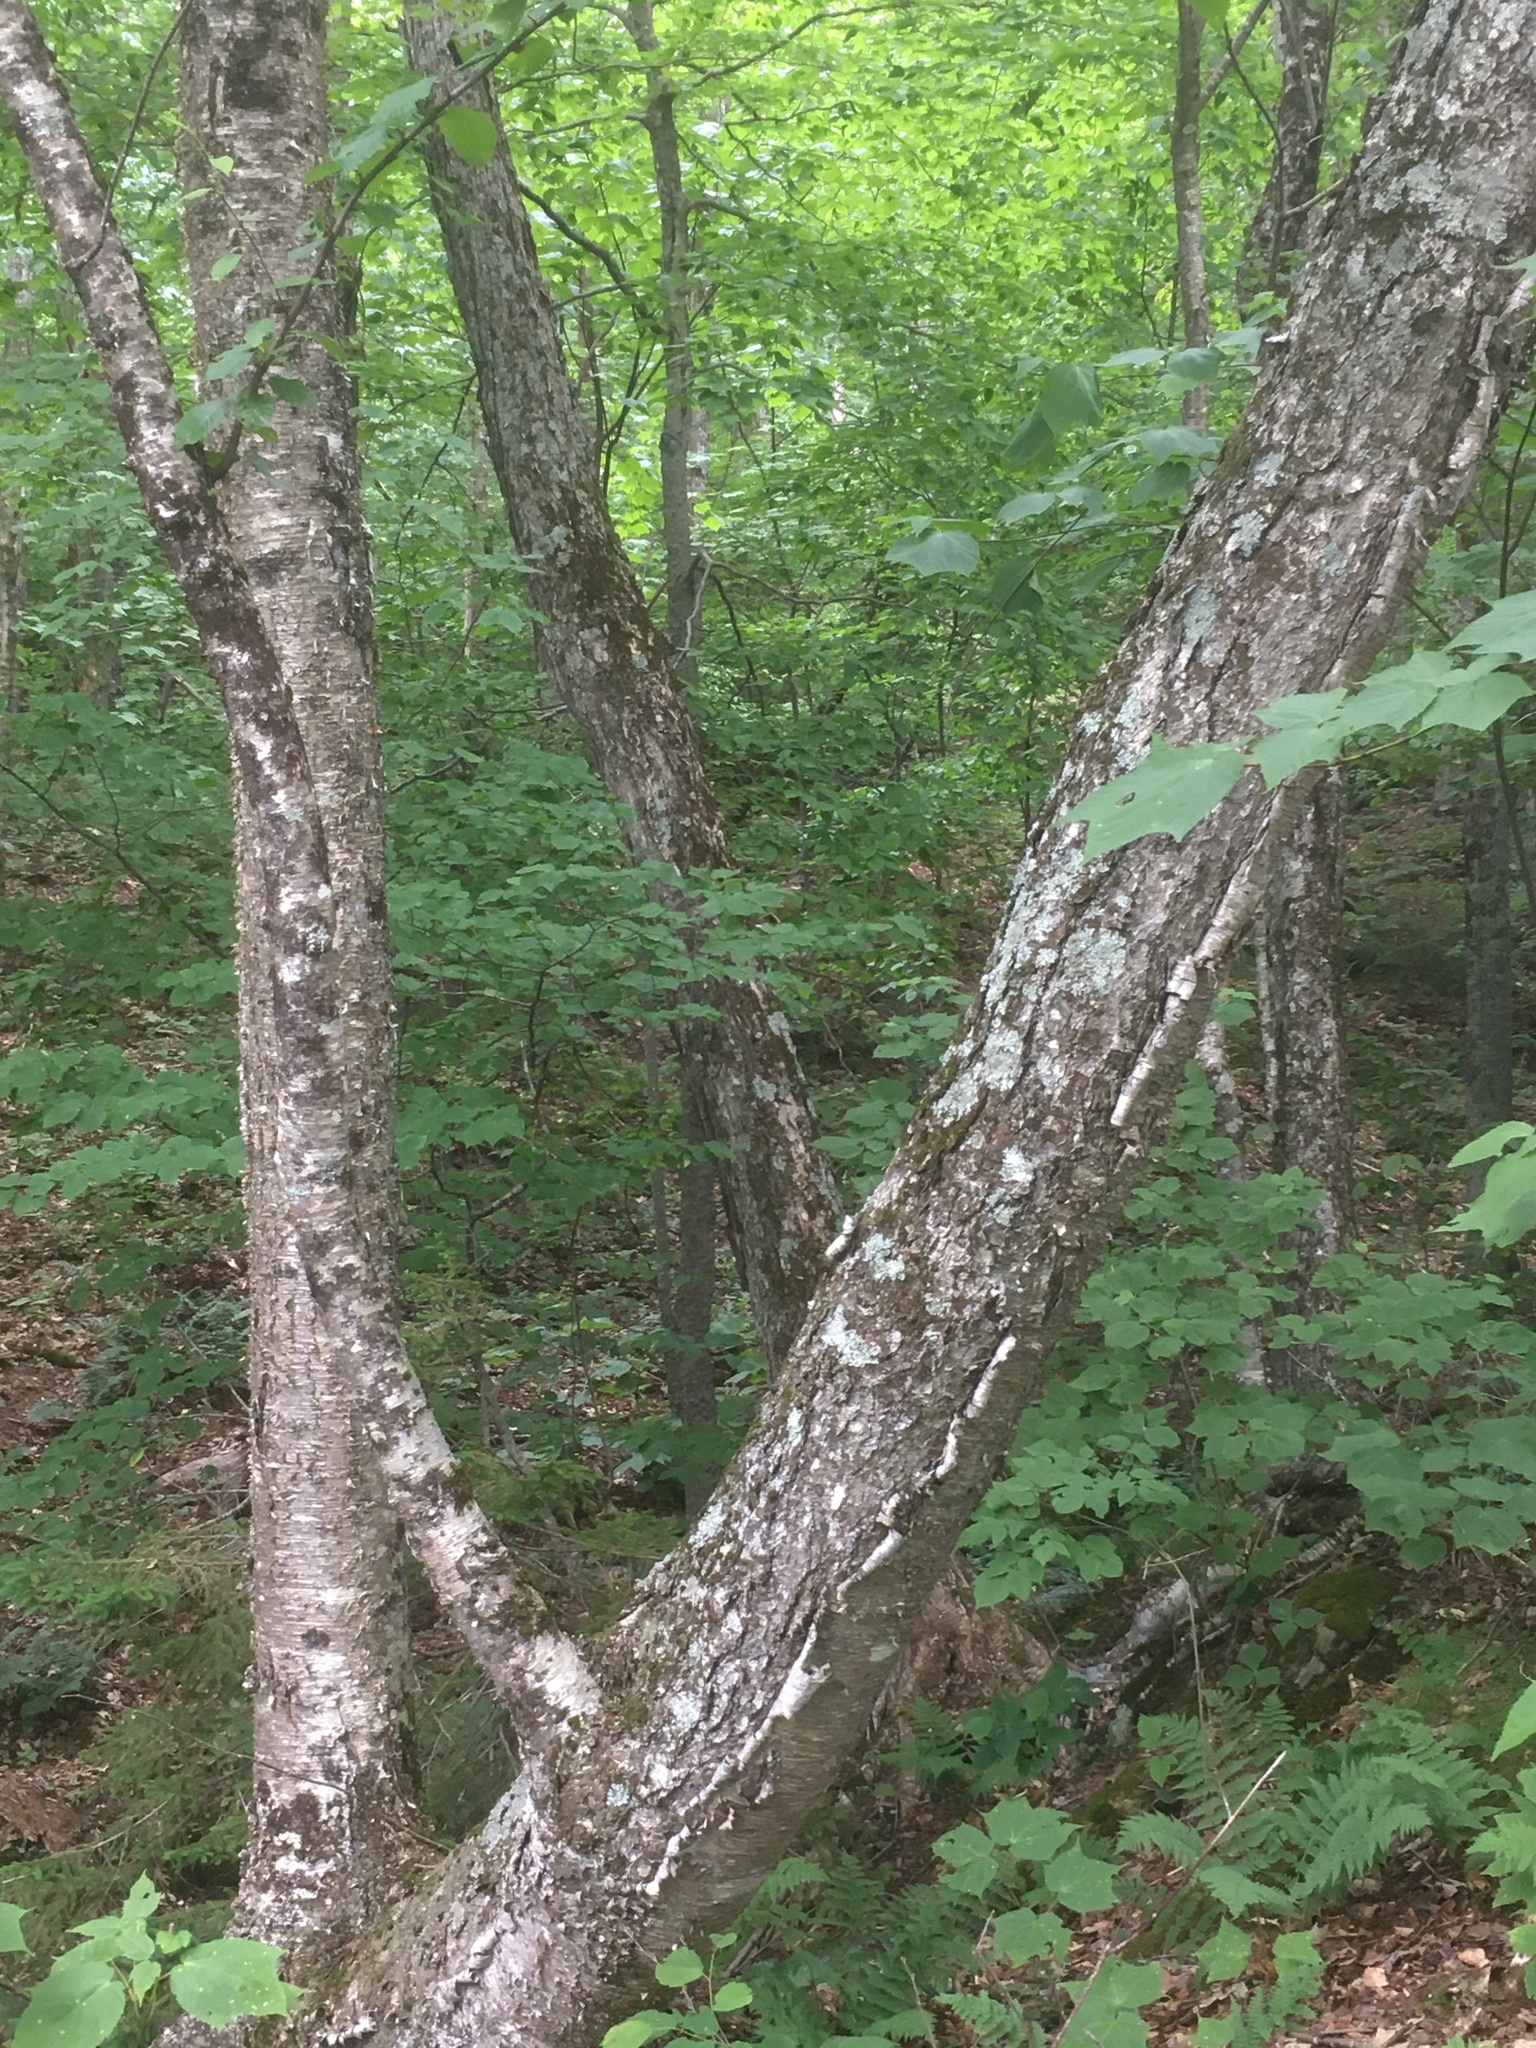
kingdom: Plantae
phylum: Tracheophyta
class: Magnoliopsida
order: Fagales
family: Betulaceae
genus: Betula
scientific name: Betula alleghaniensis
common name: Yellow birch
